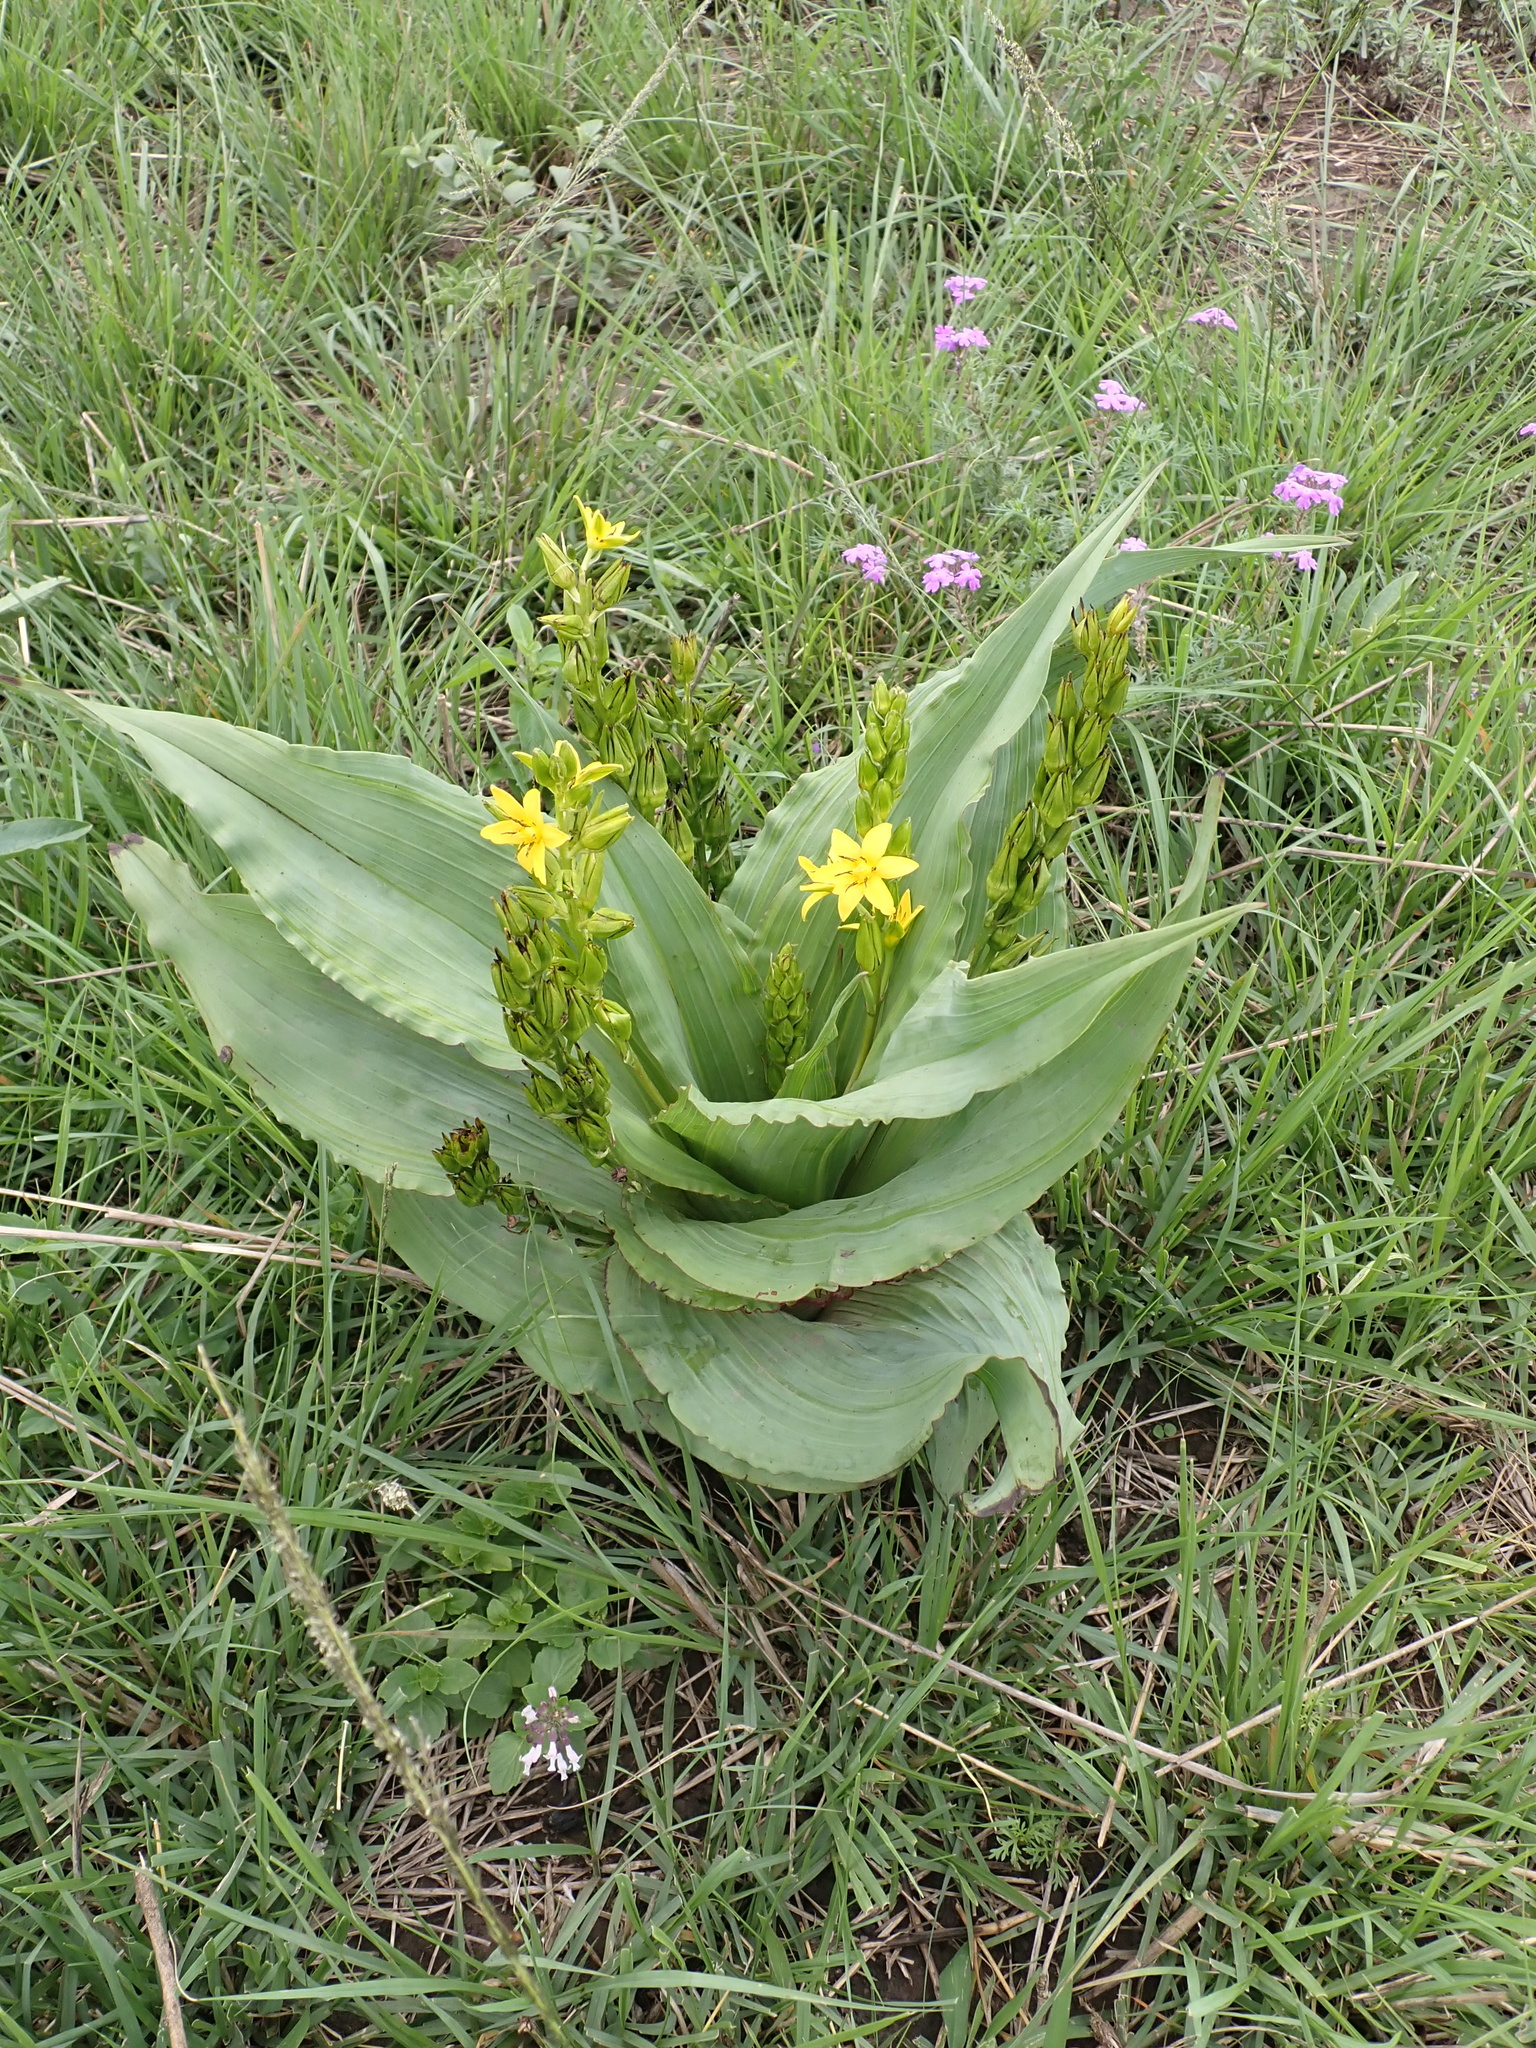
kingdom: Plantae
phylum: Tracheophyta
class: Liliopsida
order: Asparagales
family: Hypoxidaceae
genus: Hypoxis
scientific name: Hypoxis colchicifolia
